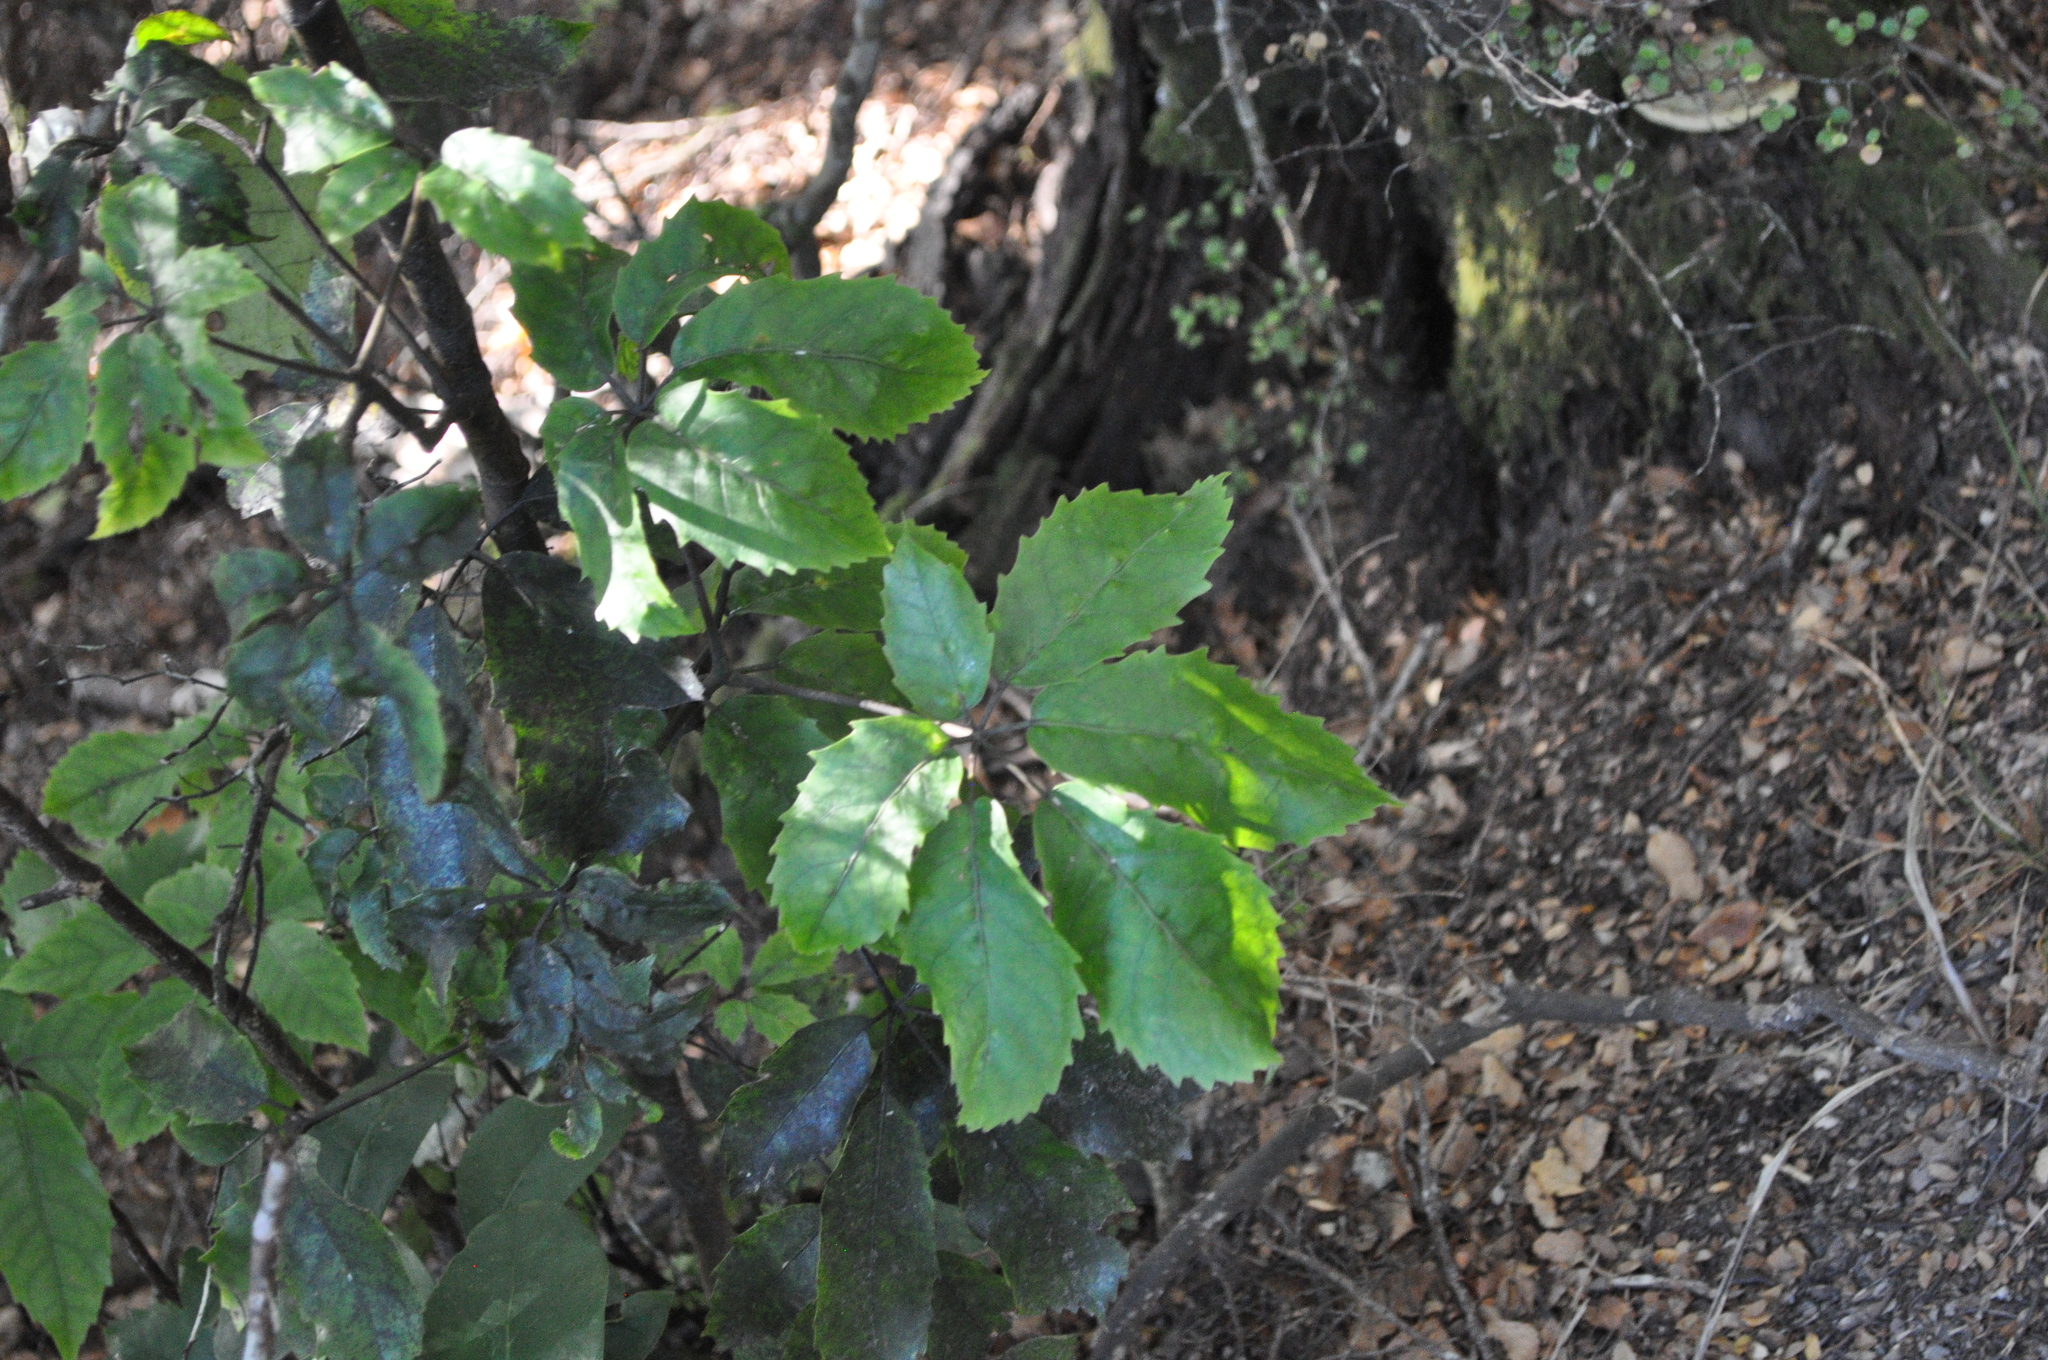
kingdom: Plantae
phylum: Tracheophyta
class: Magnoliopsida
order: Apiales
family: Araliaceae
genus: Neopanax
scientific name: Neopanax arboreus
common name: Five-fingers
